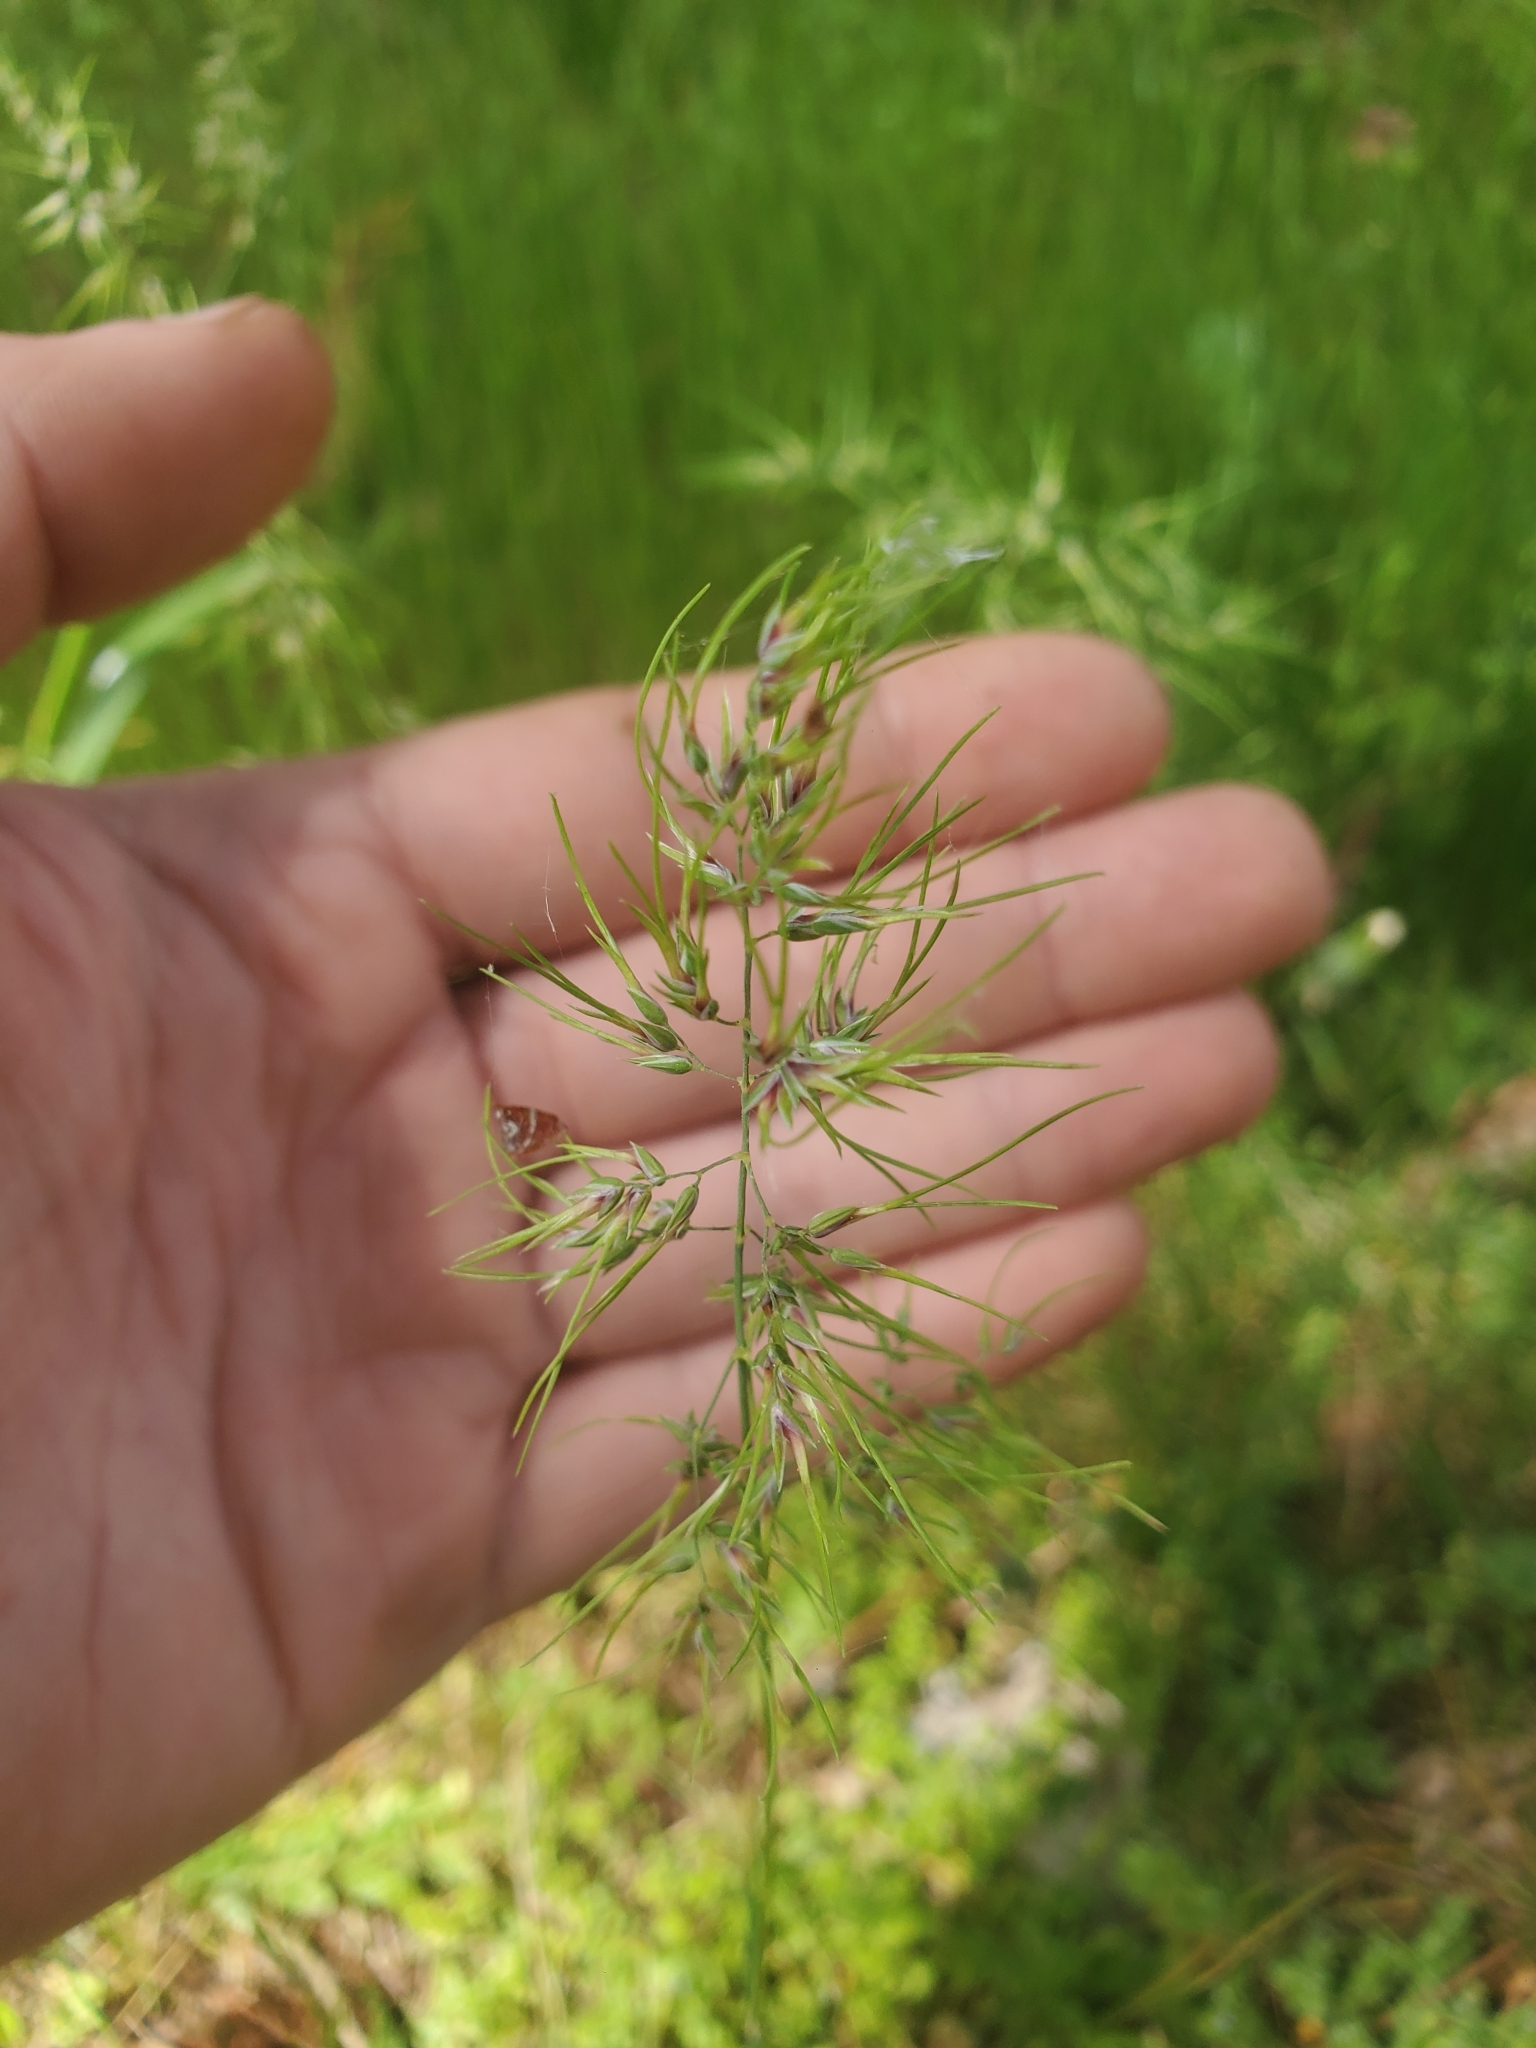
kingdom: Plantae
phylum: Tracheophyta
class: Liliopsida
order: Poales
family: Poaceae
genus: Poa
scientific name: Poa bulbosa
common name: Bulbous bluegrass
